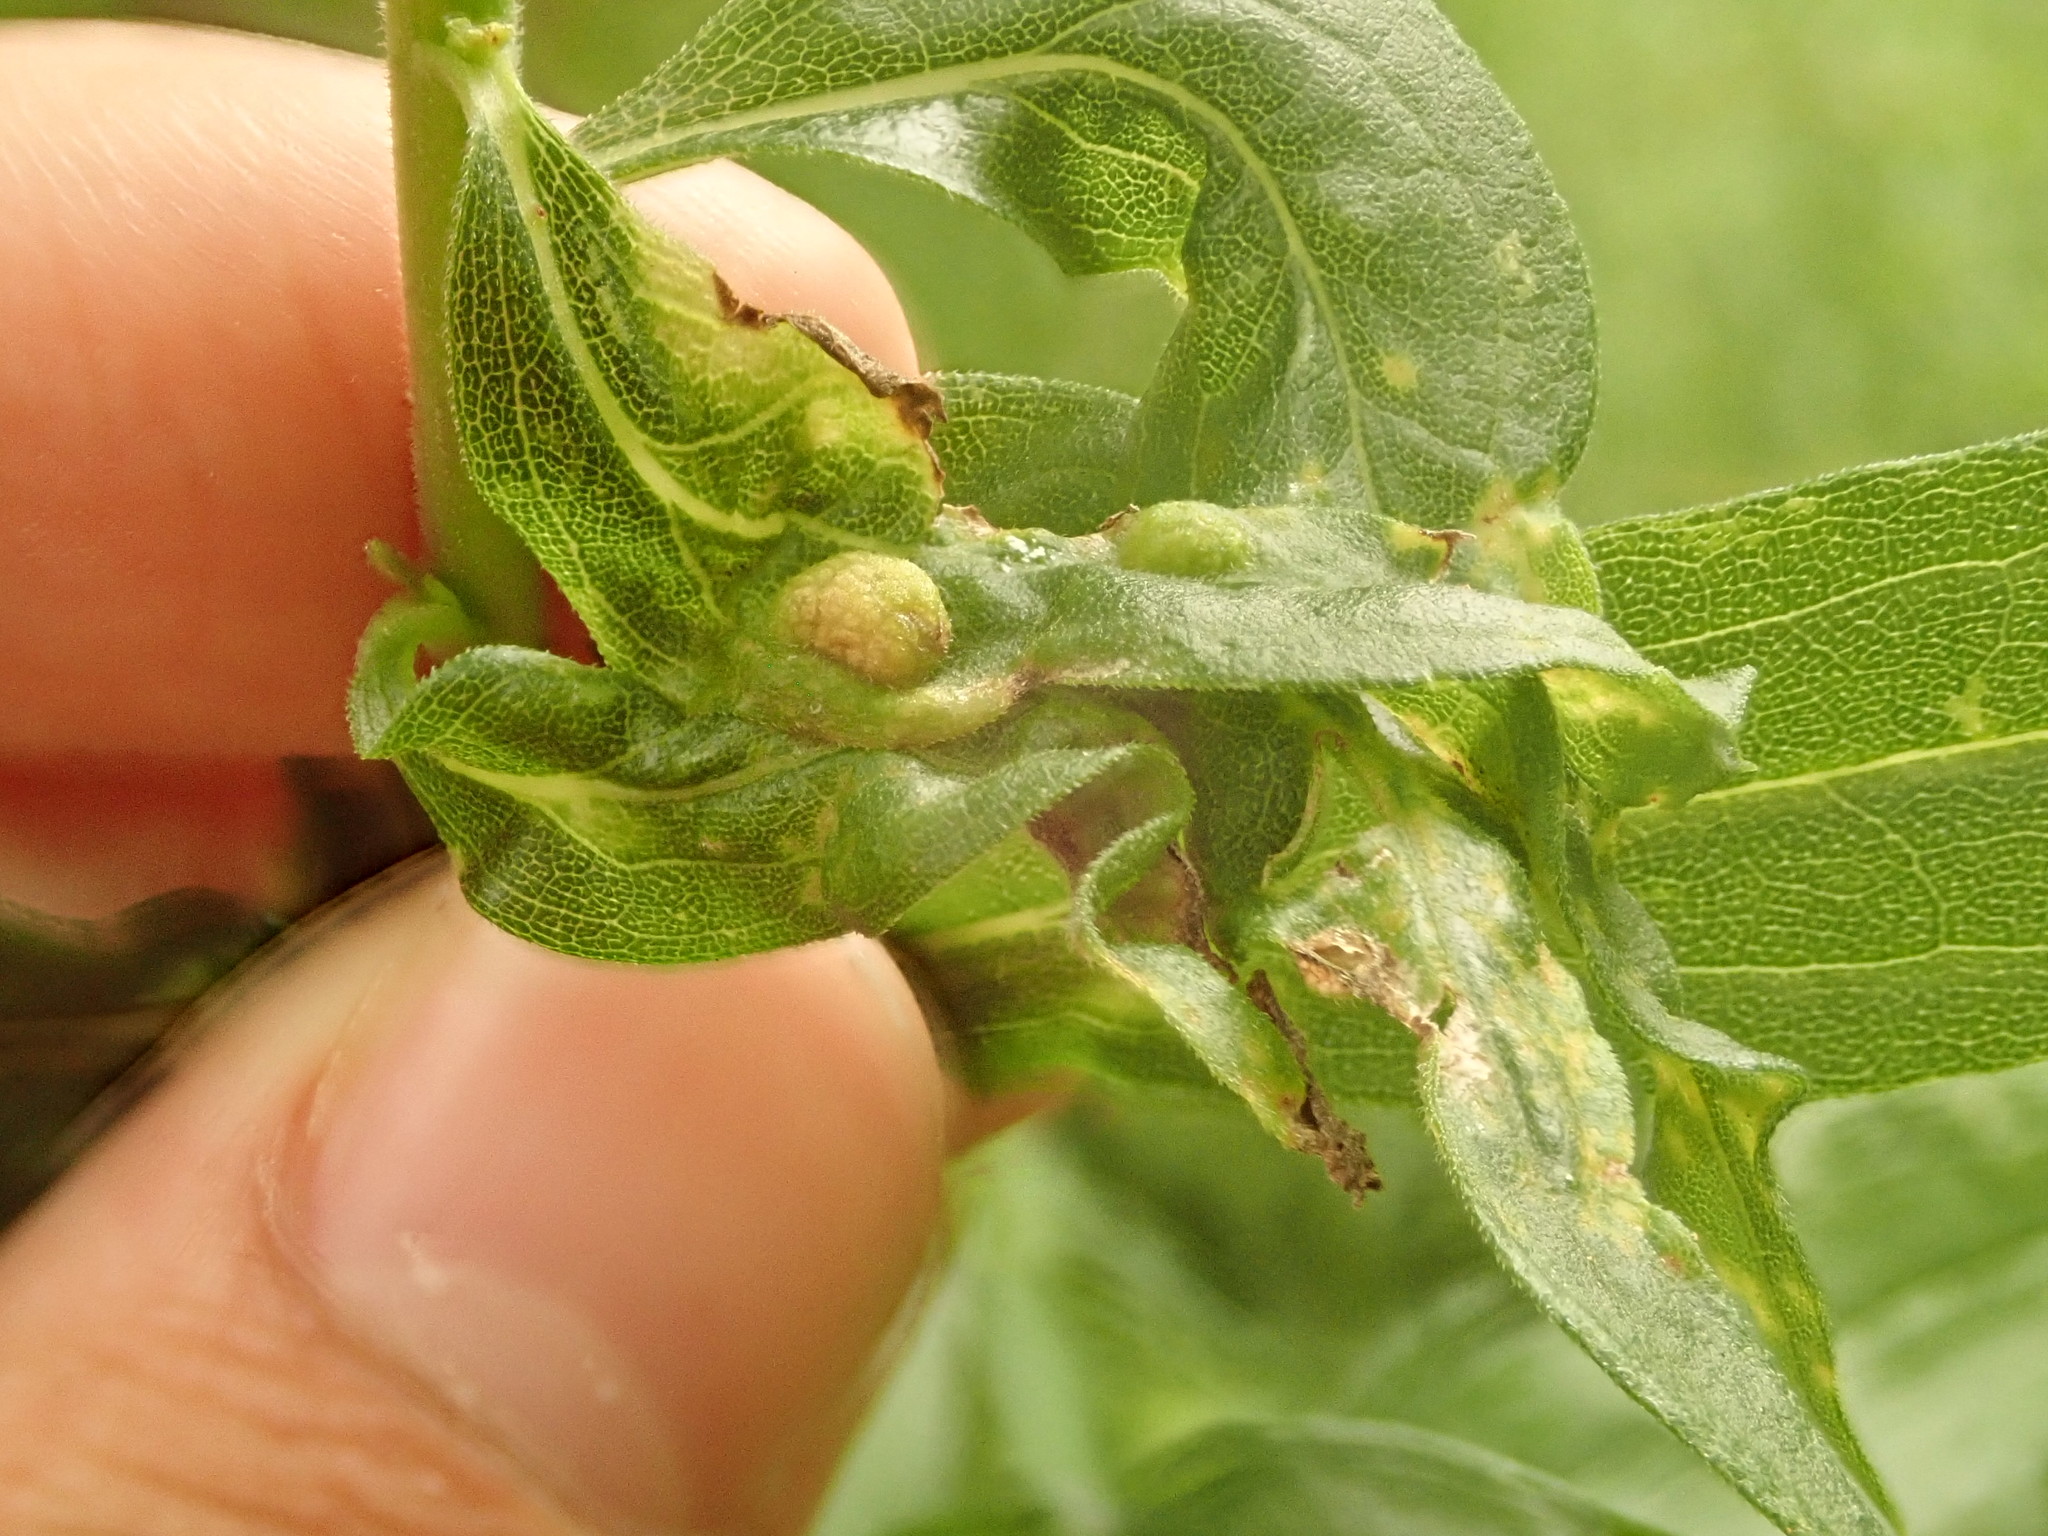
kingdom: Animalia
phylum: Arthropoda
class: Insecta
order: Diptera
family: Cecidomyiidae
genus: Asphondylia
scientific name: Asphondylia solidaginis
